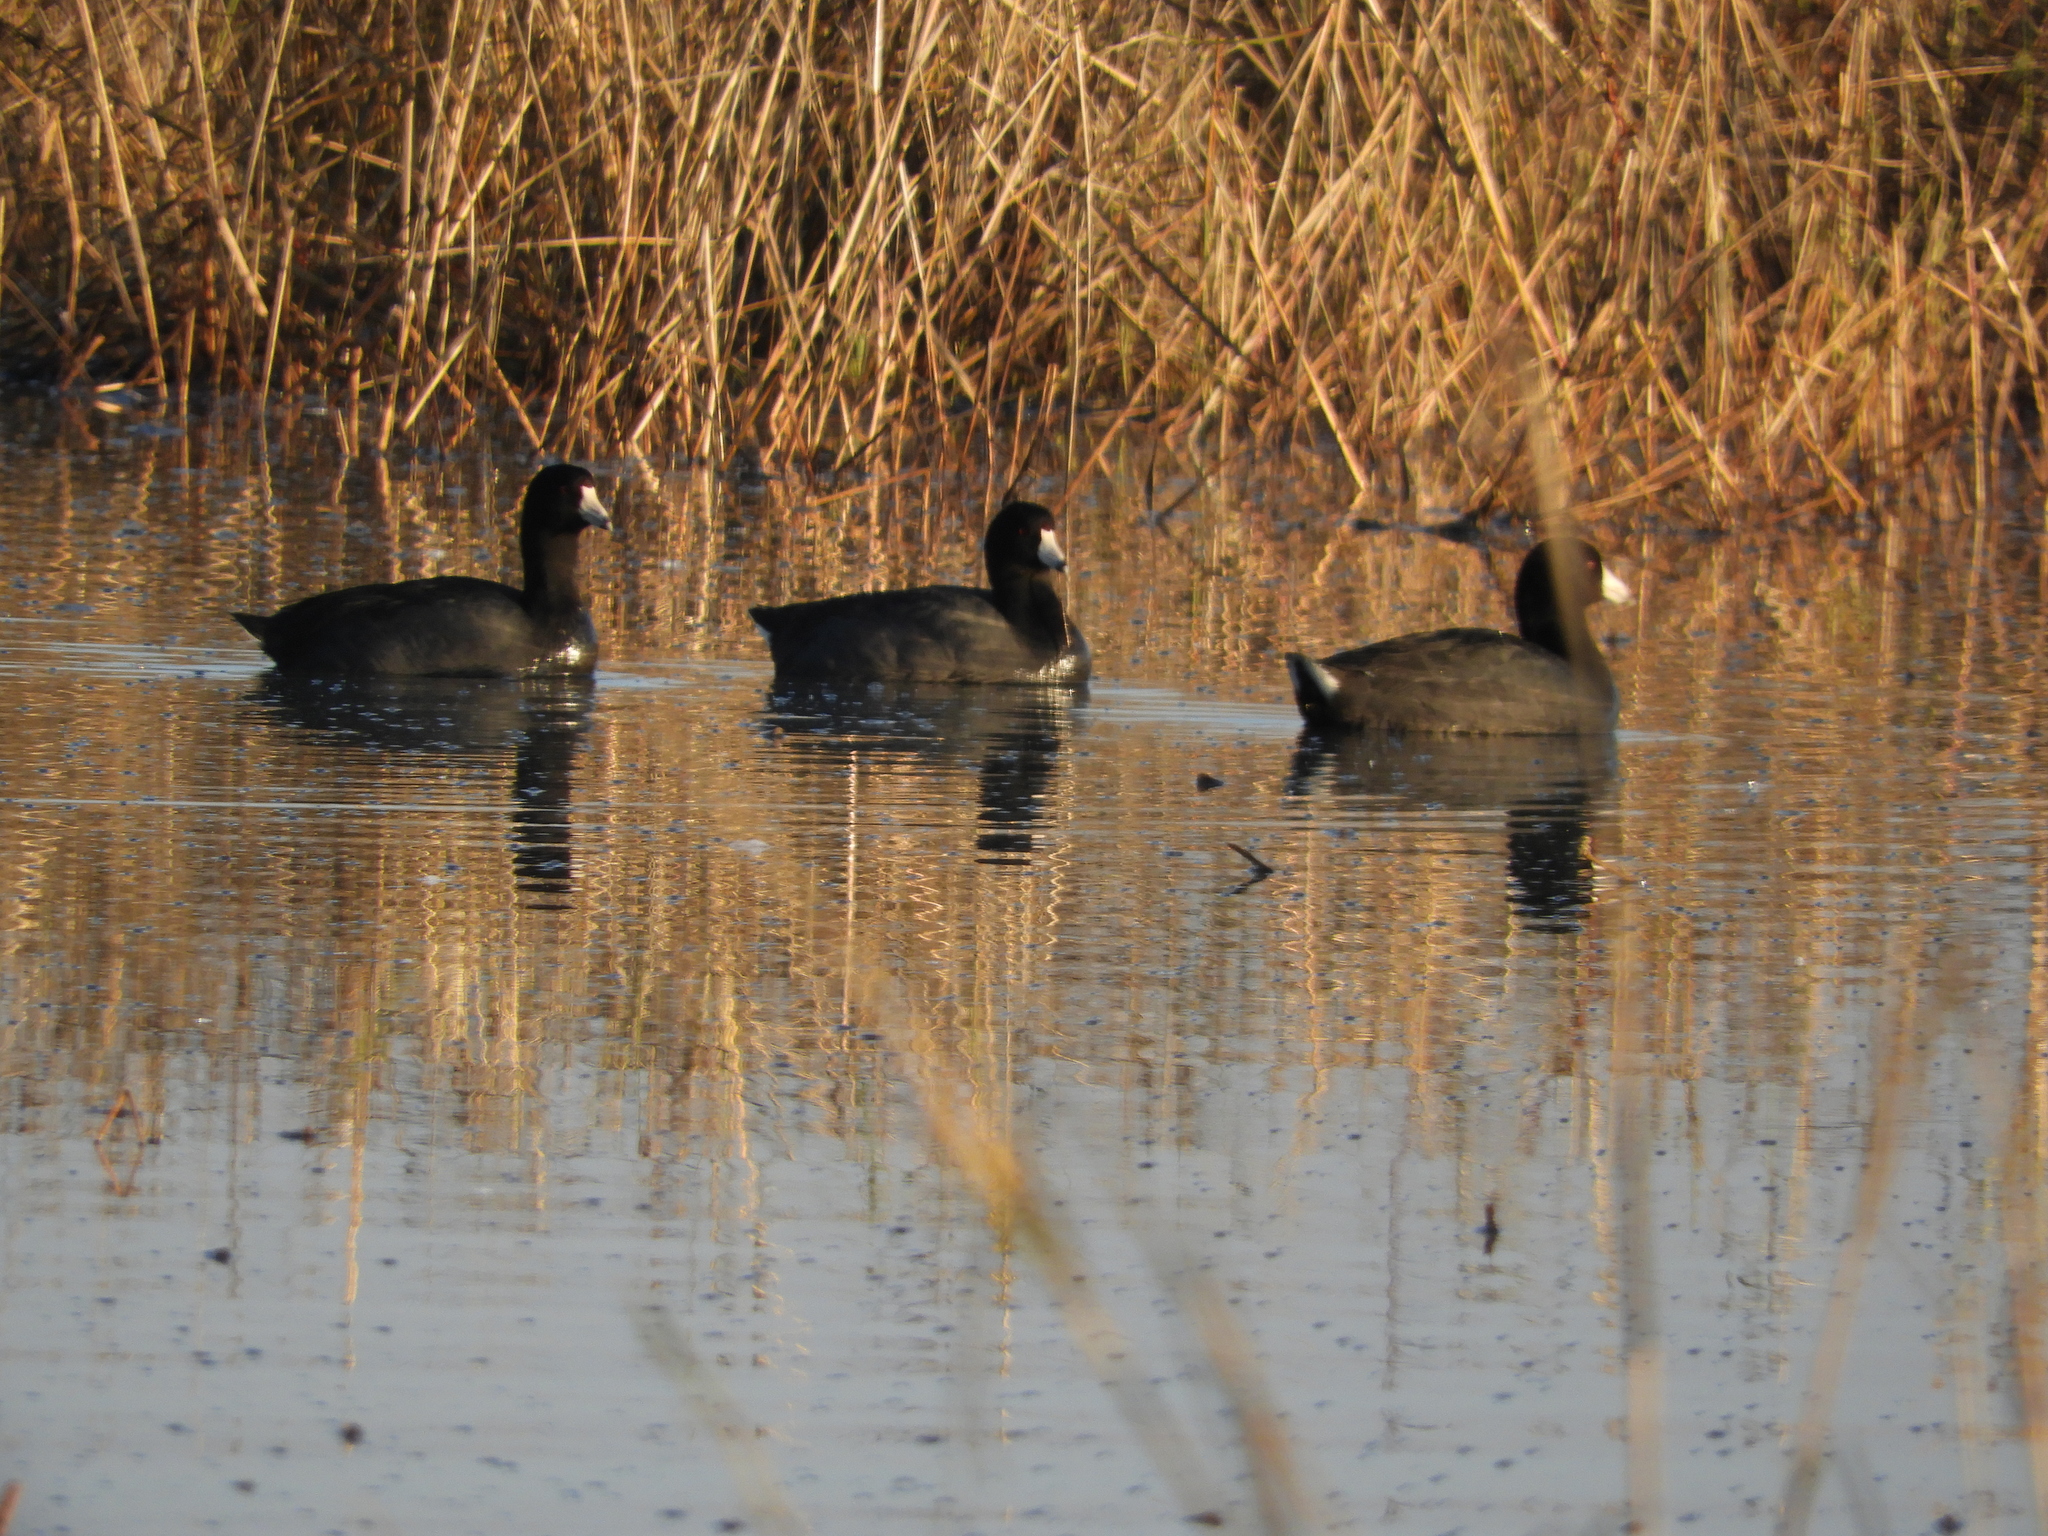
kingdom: Animalia
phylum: Chordata
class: Aves
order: Gruiformes
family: Rallidae
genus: Fulica
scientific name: Fulica americana
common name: American coot
